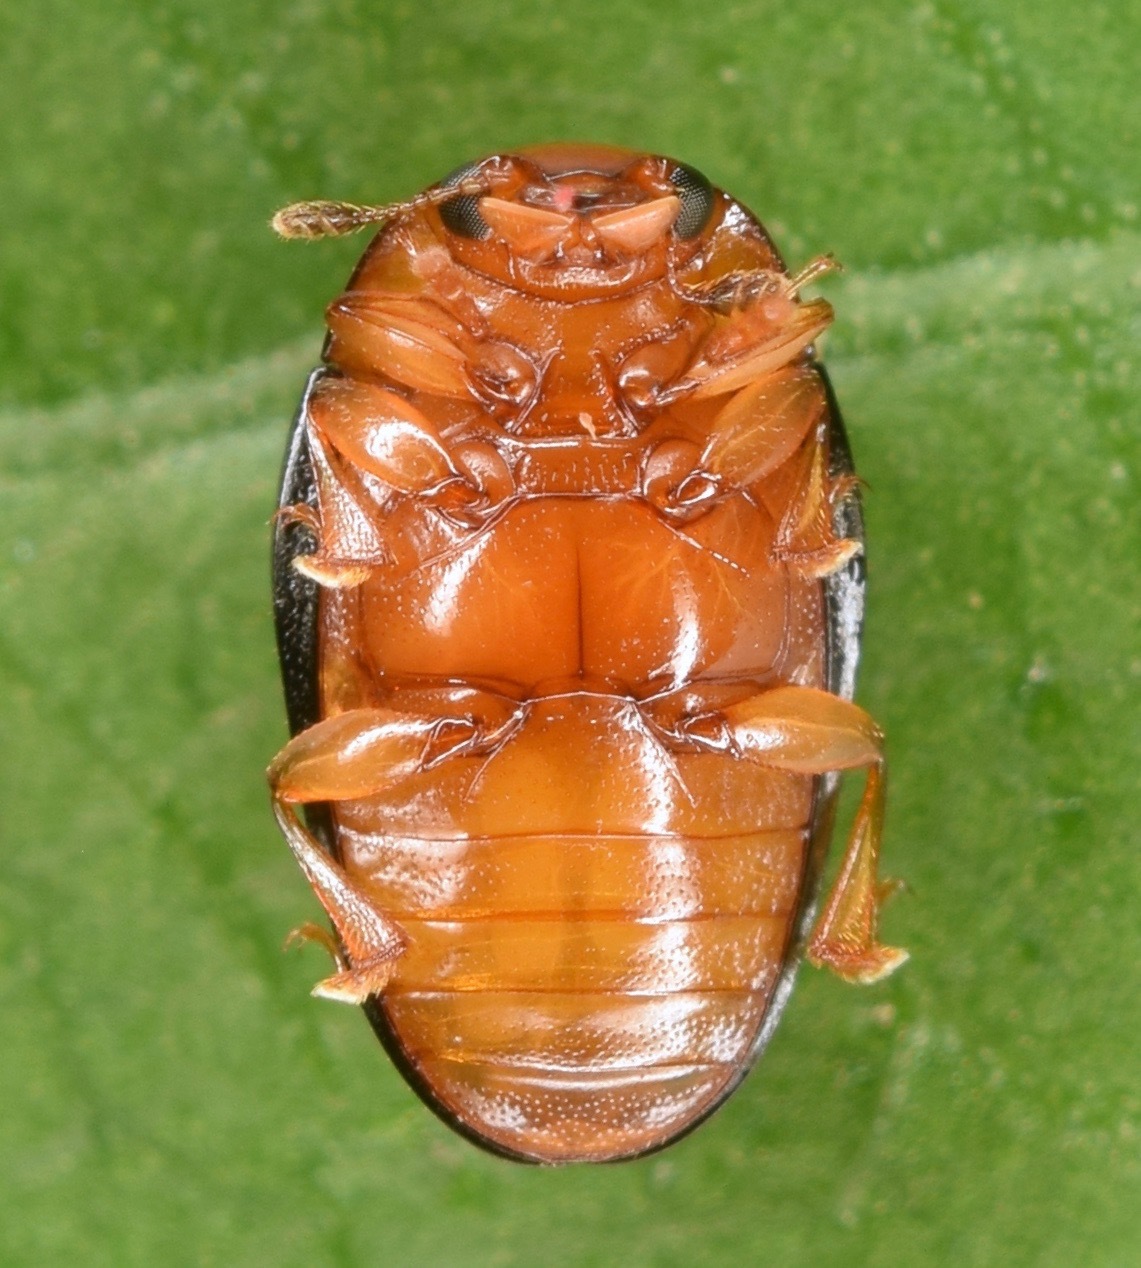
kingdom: Animalia
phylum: Arthropoda
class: Insecta
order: Coleoptera
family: Erotylidae
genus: Tritoma
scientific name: Tritoma biguttata
